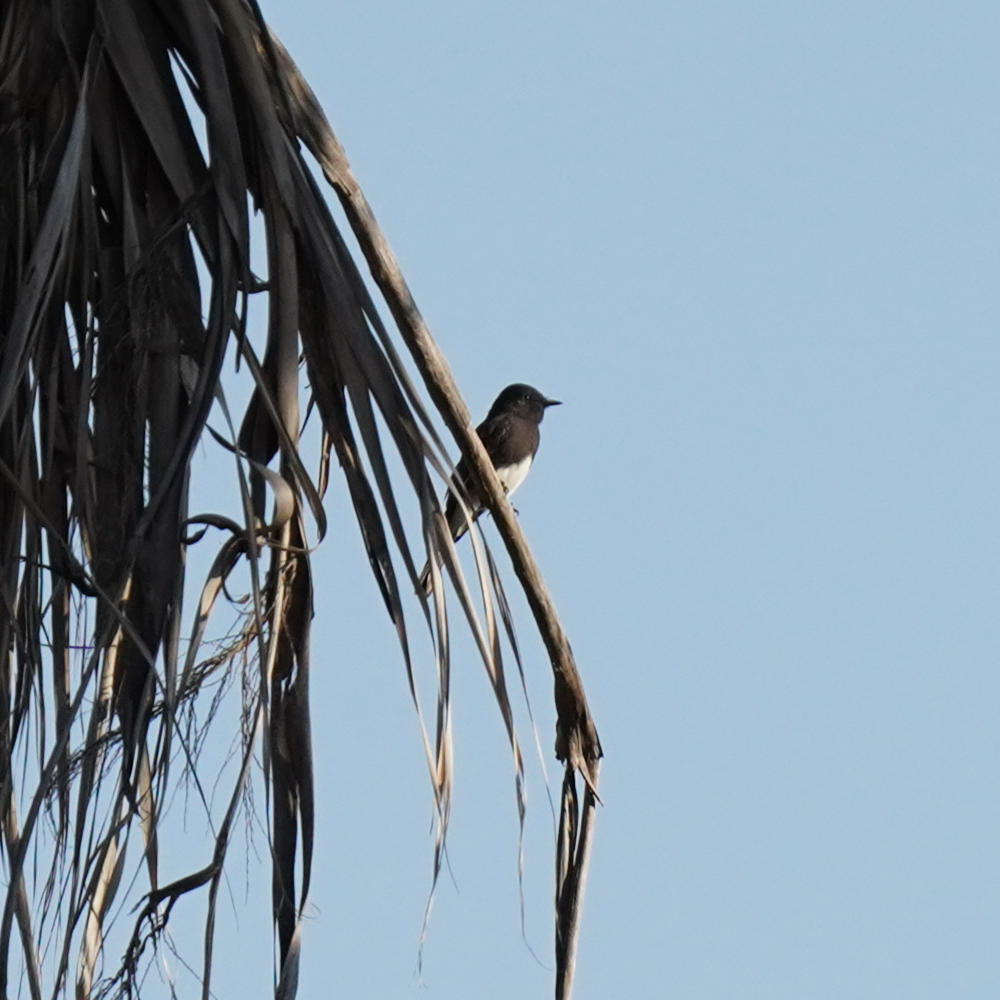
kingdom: Animalia
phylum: Chordata
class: Aves
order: Passeriformes
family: Tyrannidae
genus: Sayornis
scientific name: Sayornis nigricans
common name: Black phoebe
